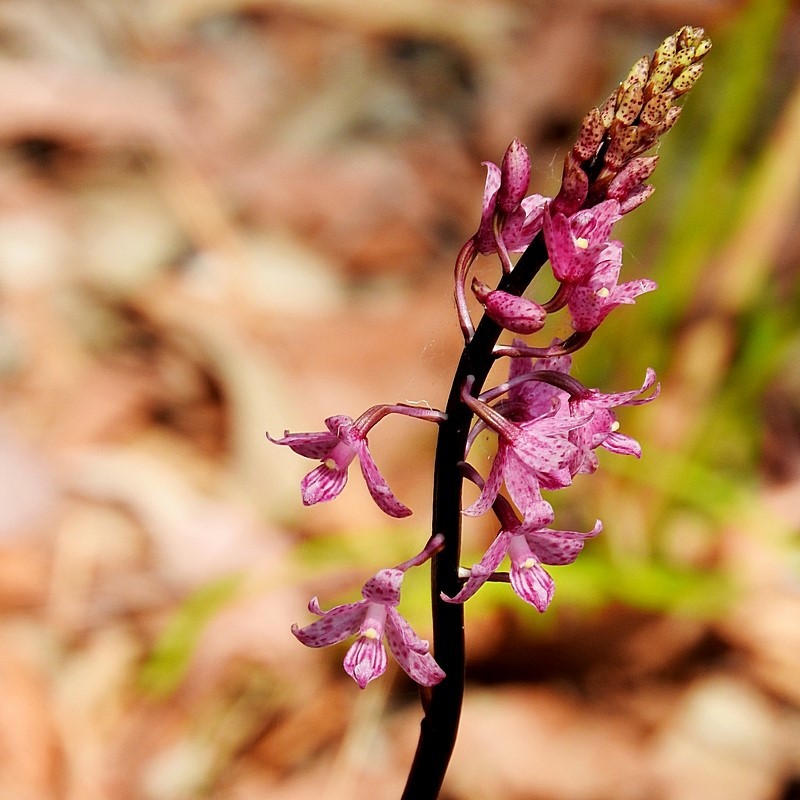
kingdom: Plantae
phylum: Tracheophyta
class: Liliopsida
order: Asparagales
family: Orchidaceae
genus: Dipodium
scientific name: Dipodium roseum
